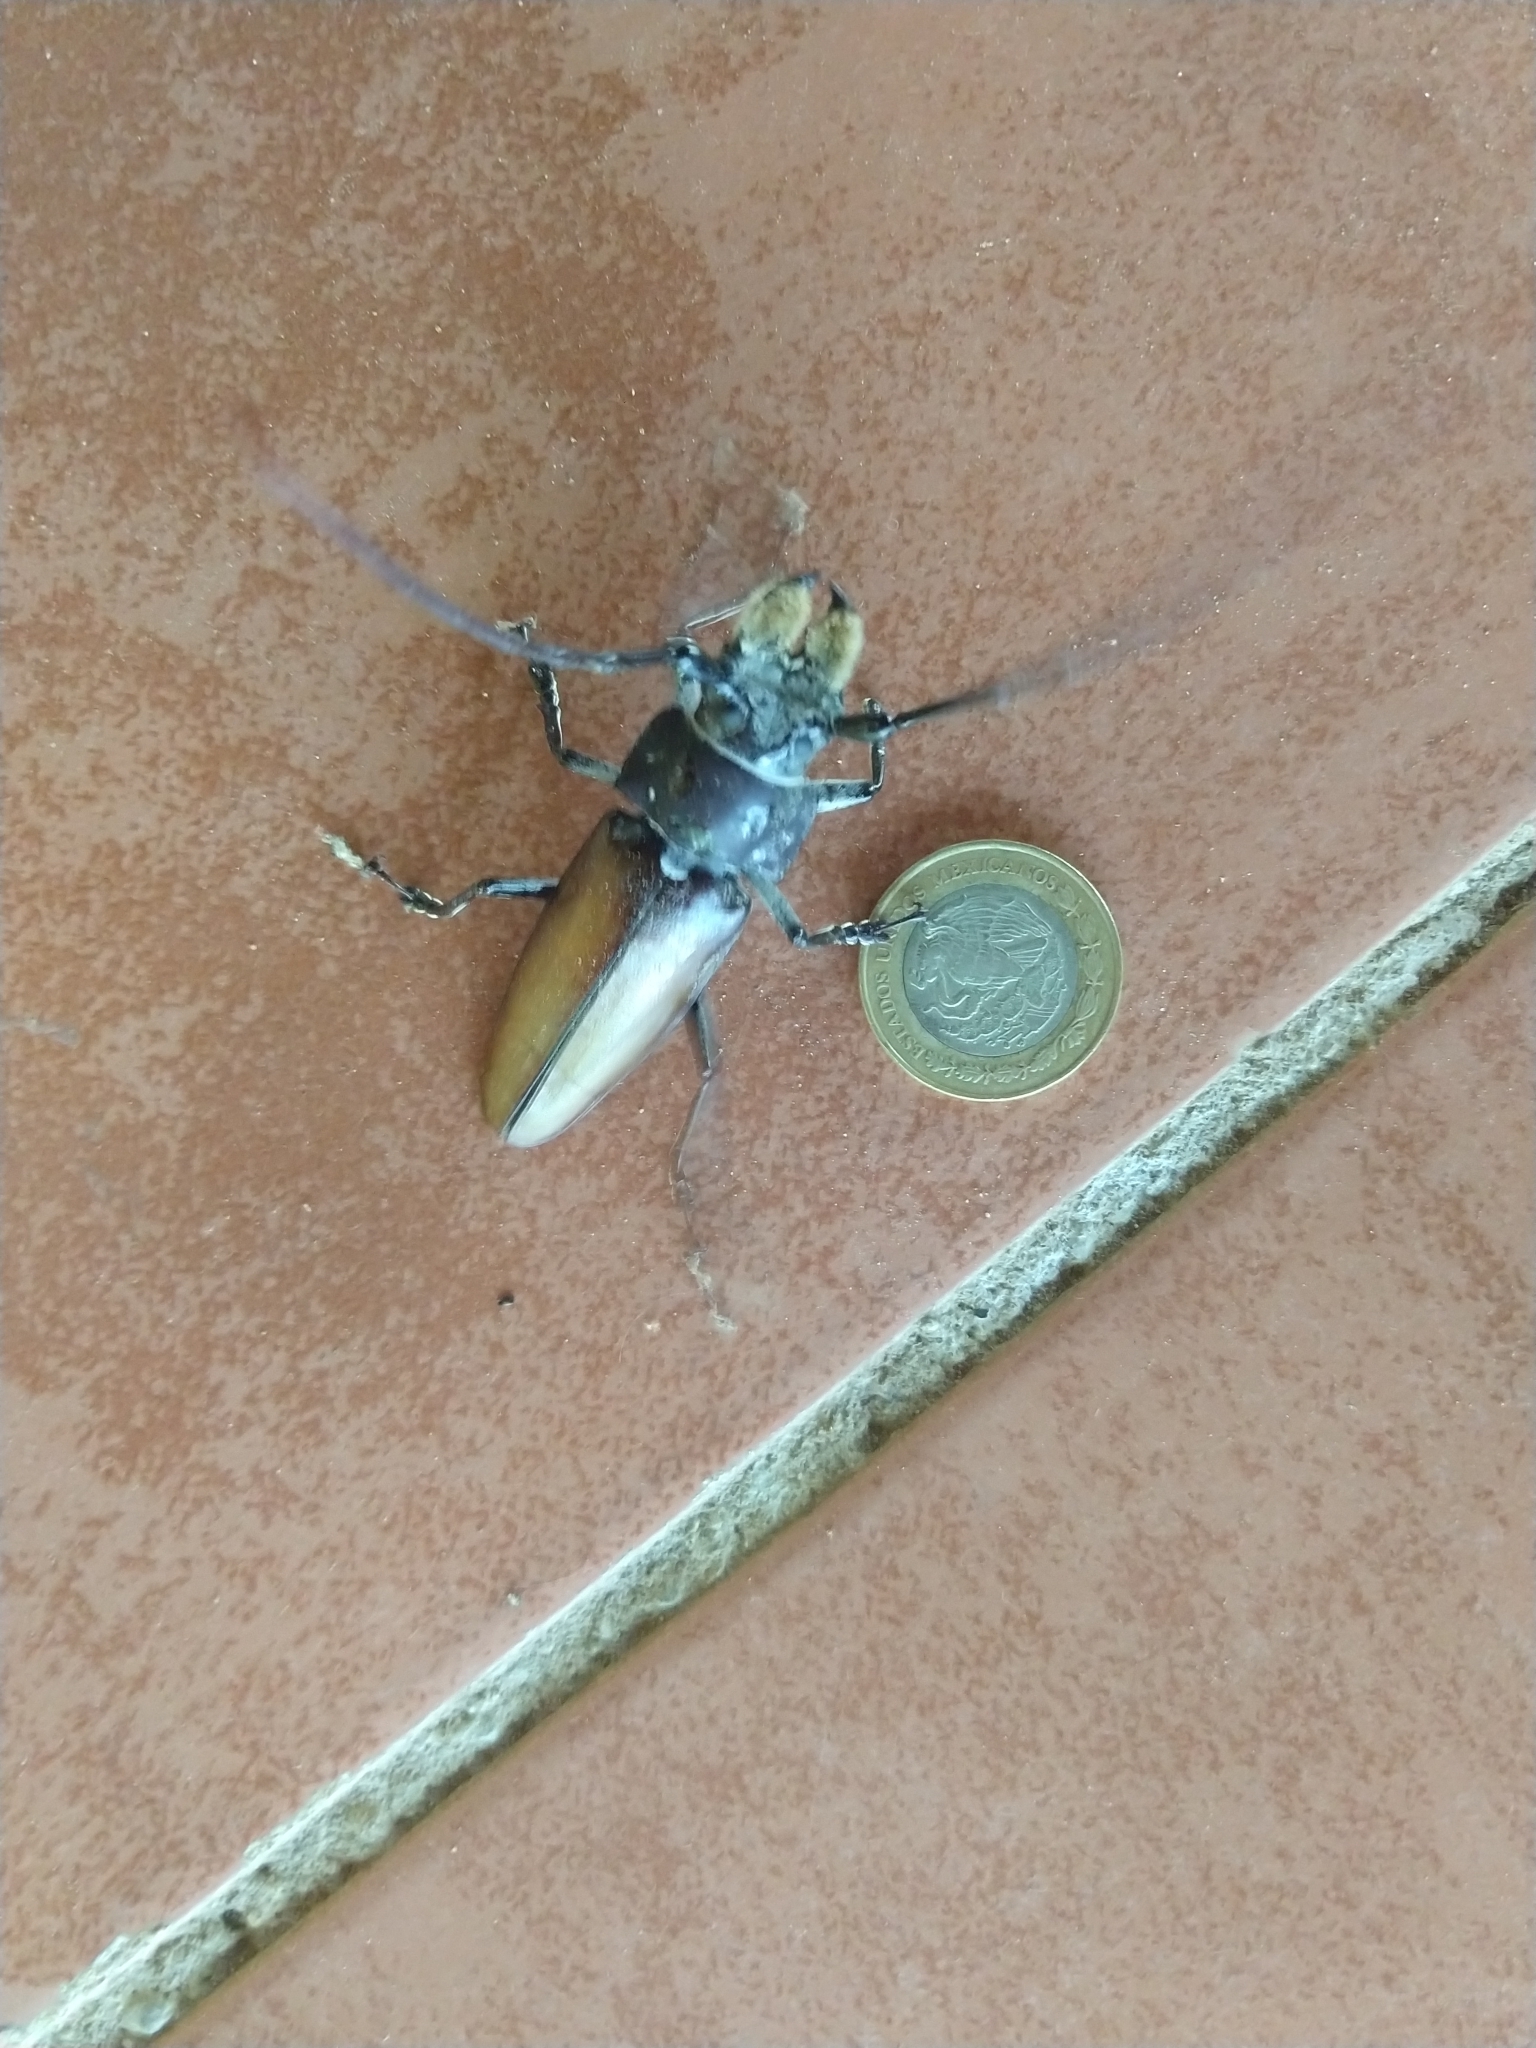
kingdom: Animalia
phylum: Arthropoda
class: Insecta
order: Coleoptera
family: Cerambycidae
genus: Callipogon
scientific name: Callipogon senex
